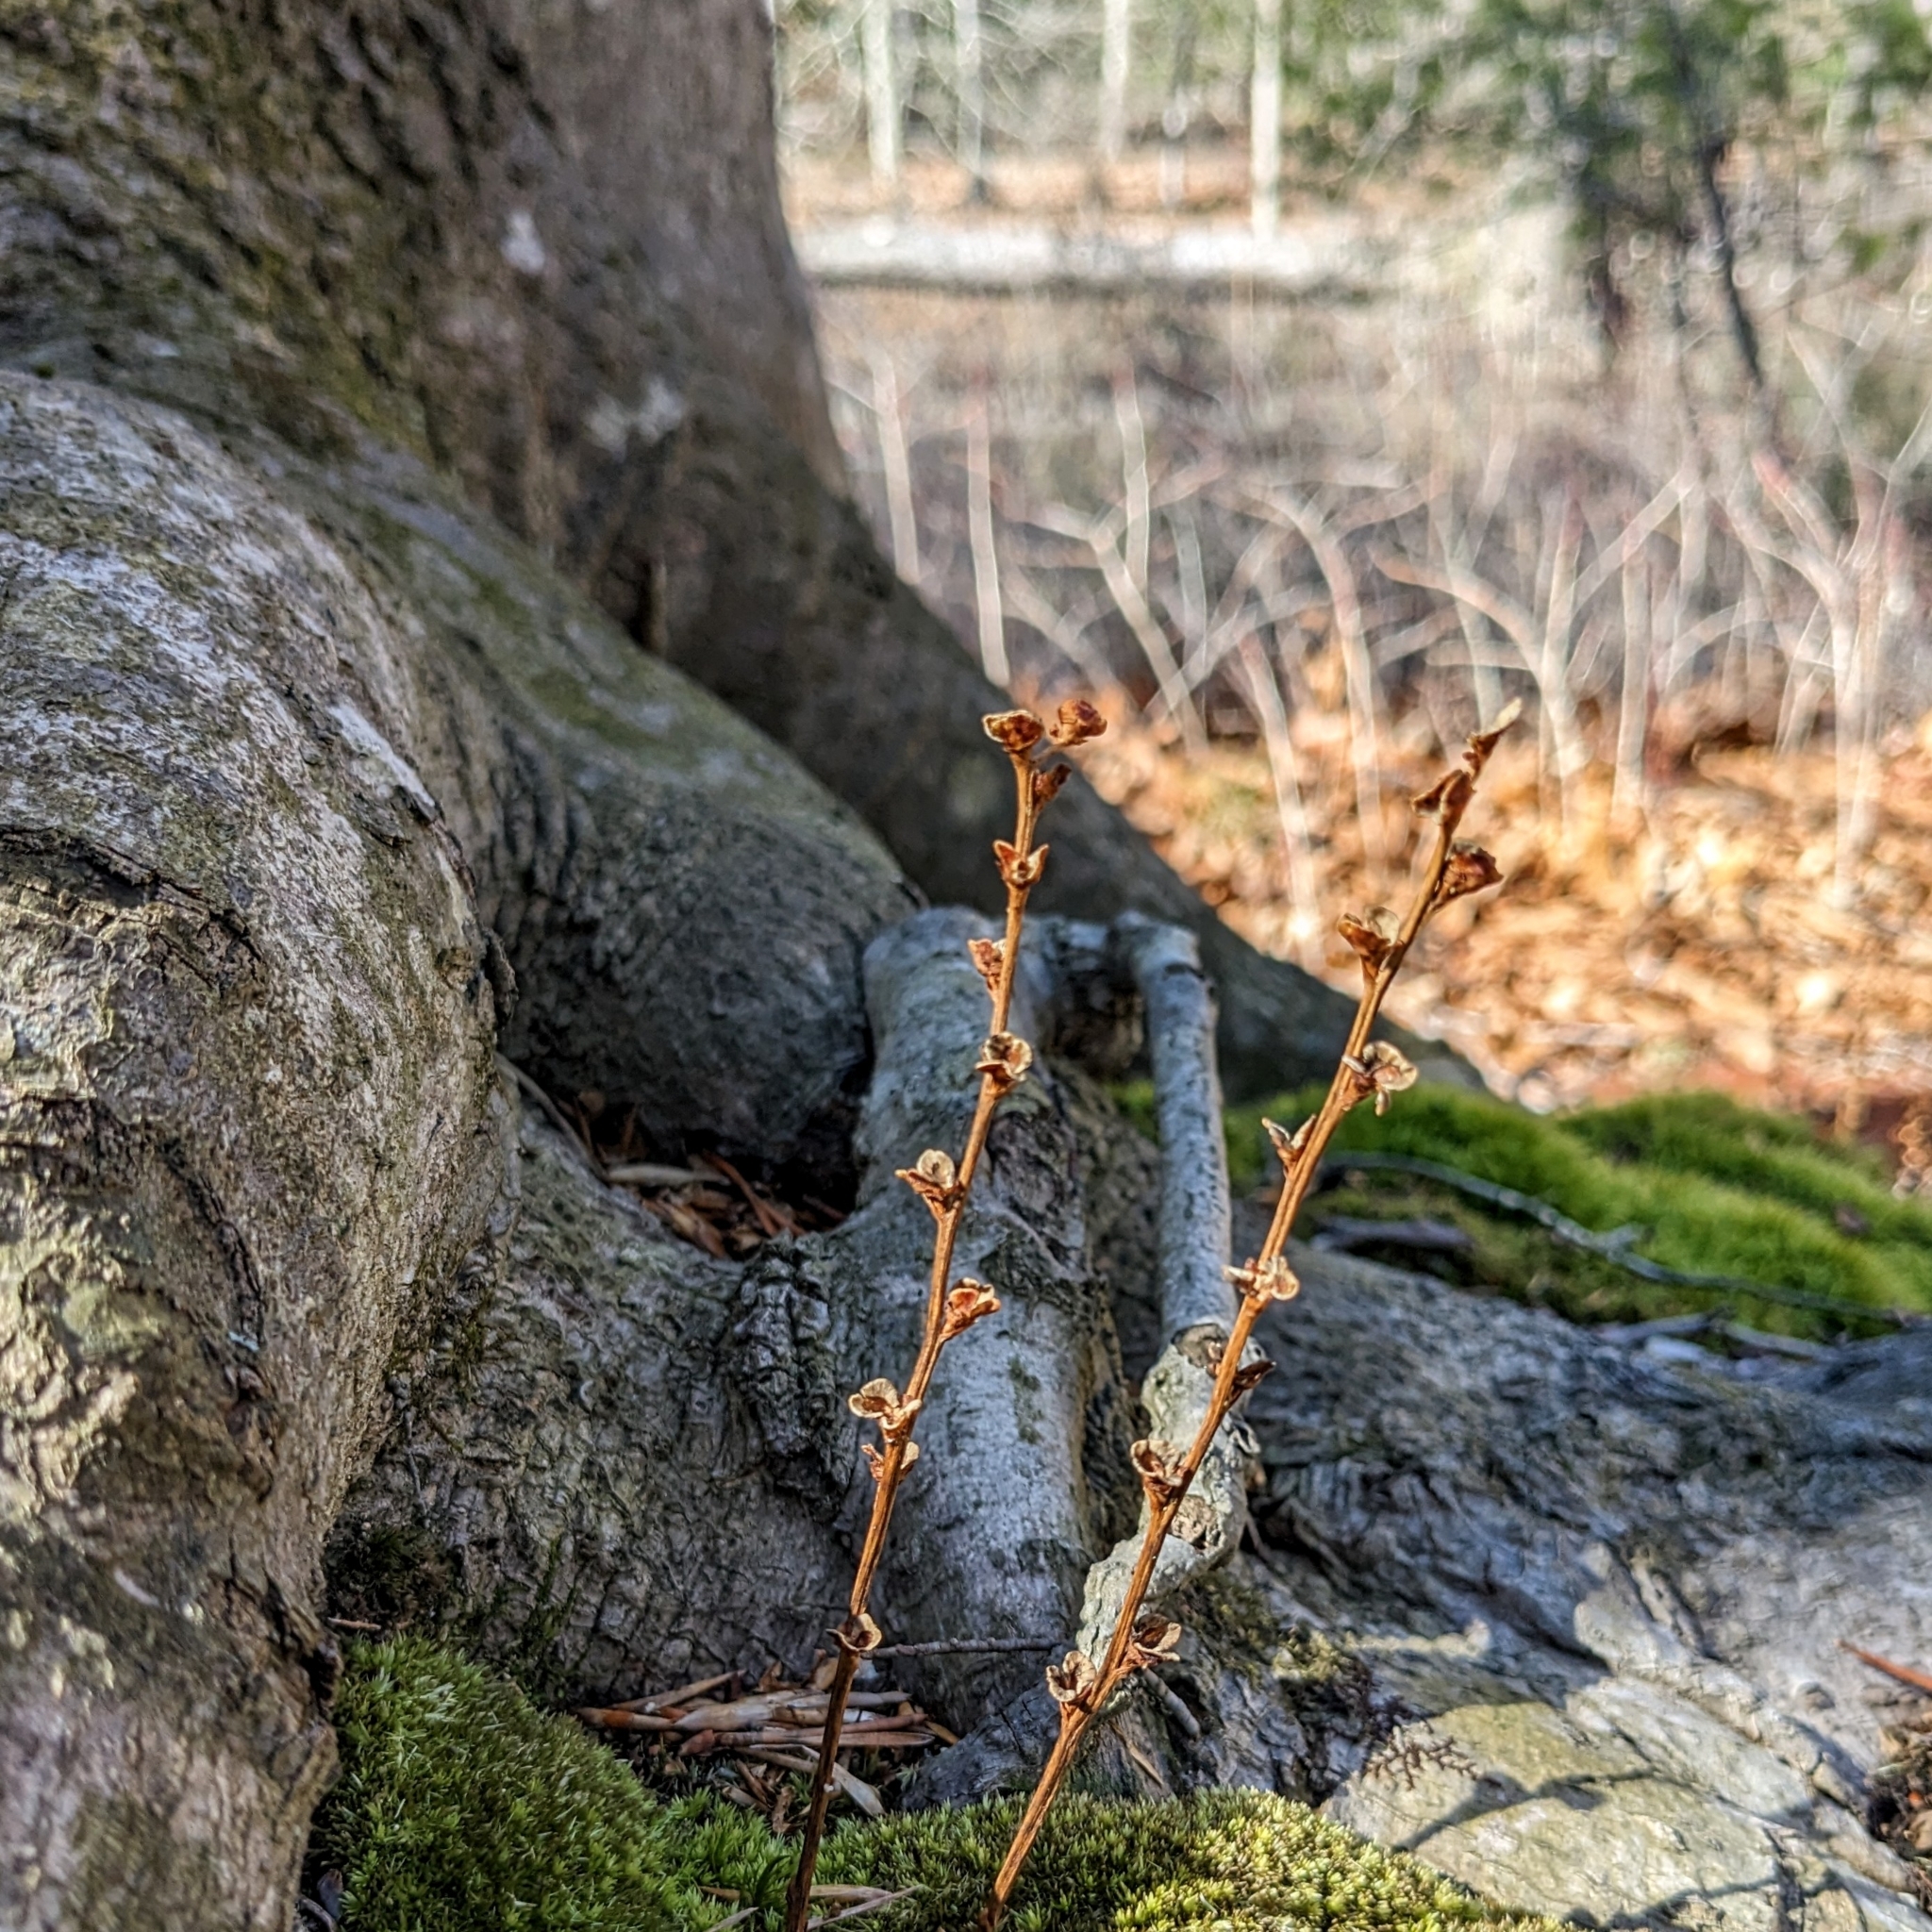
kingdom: Plantae
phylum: Tracheophyta
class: Magnoliopsida
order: Lamiales
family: Orobanchaceae
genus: Epifagus
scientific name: Epifagus virginiana
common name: Beechdrops
